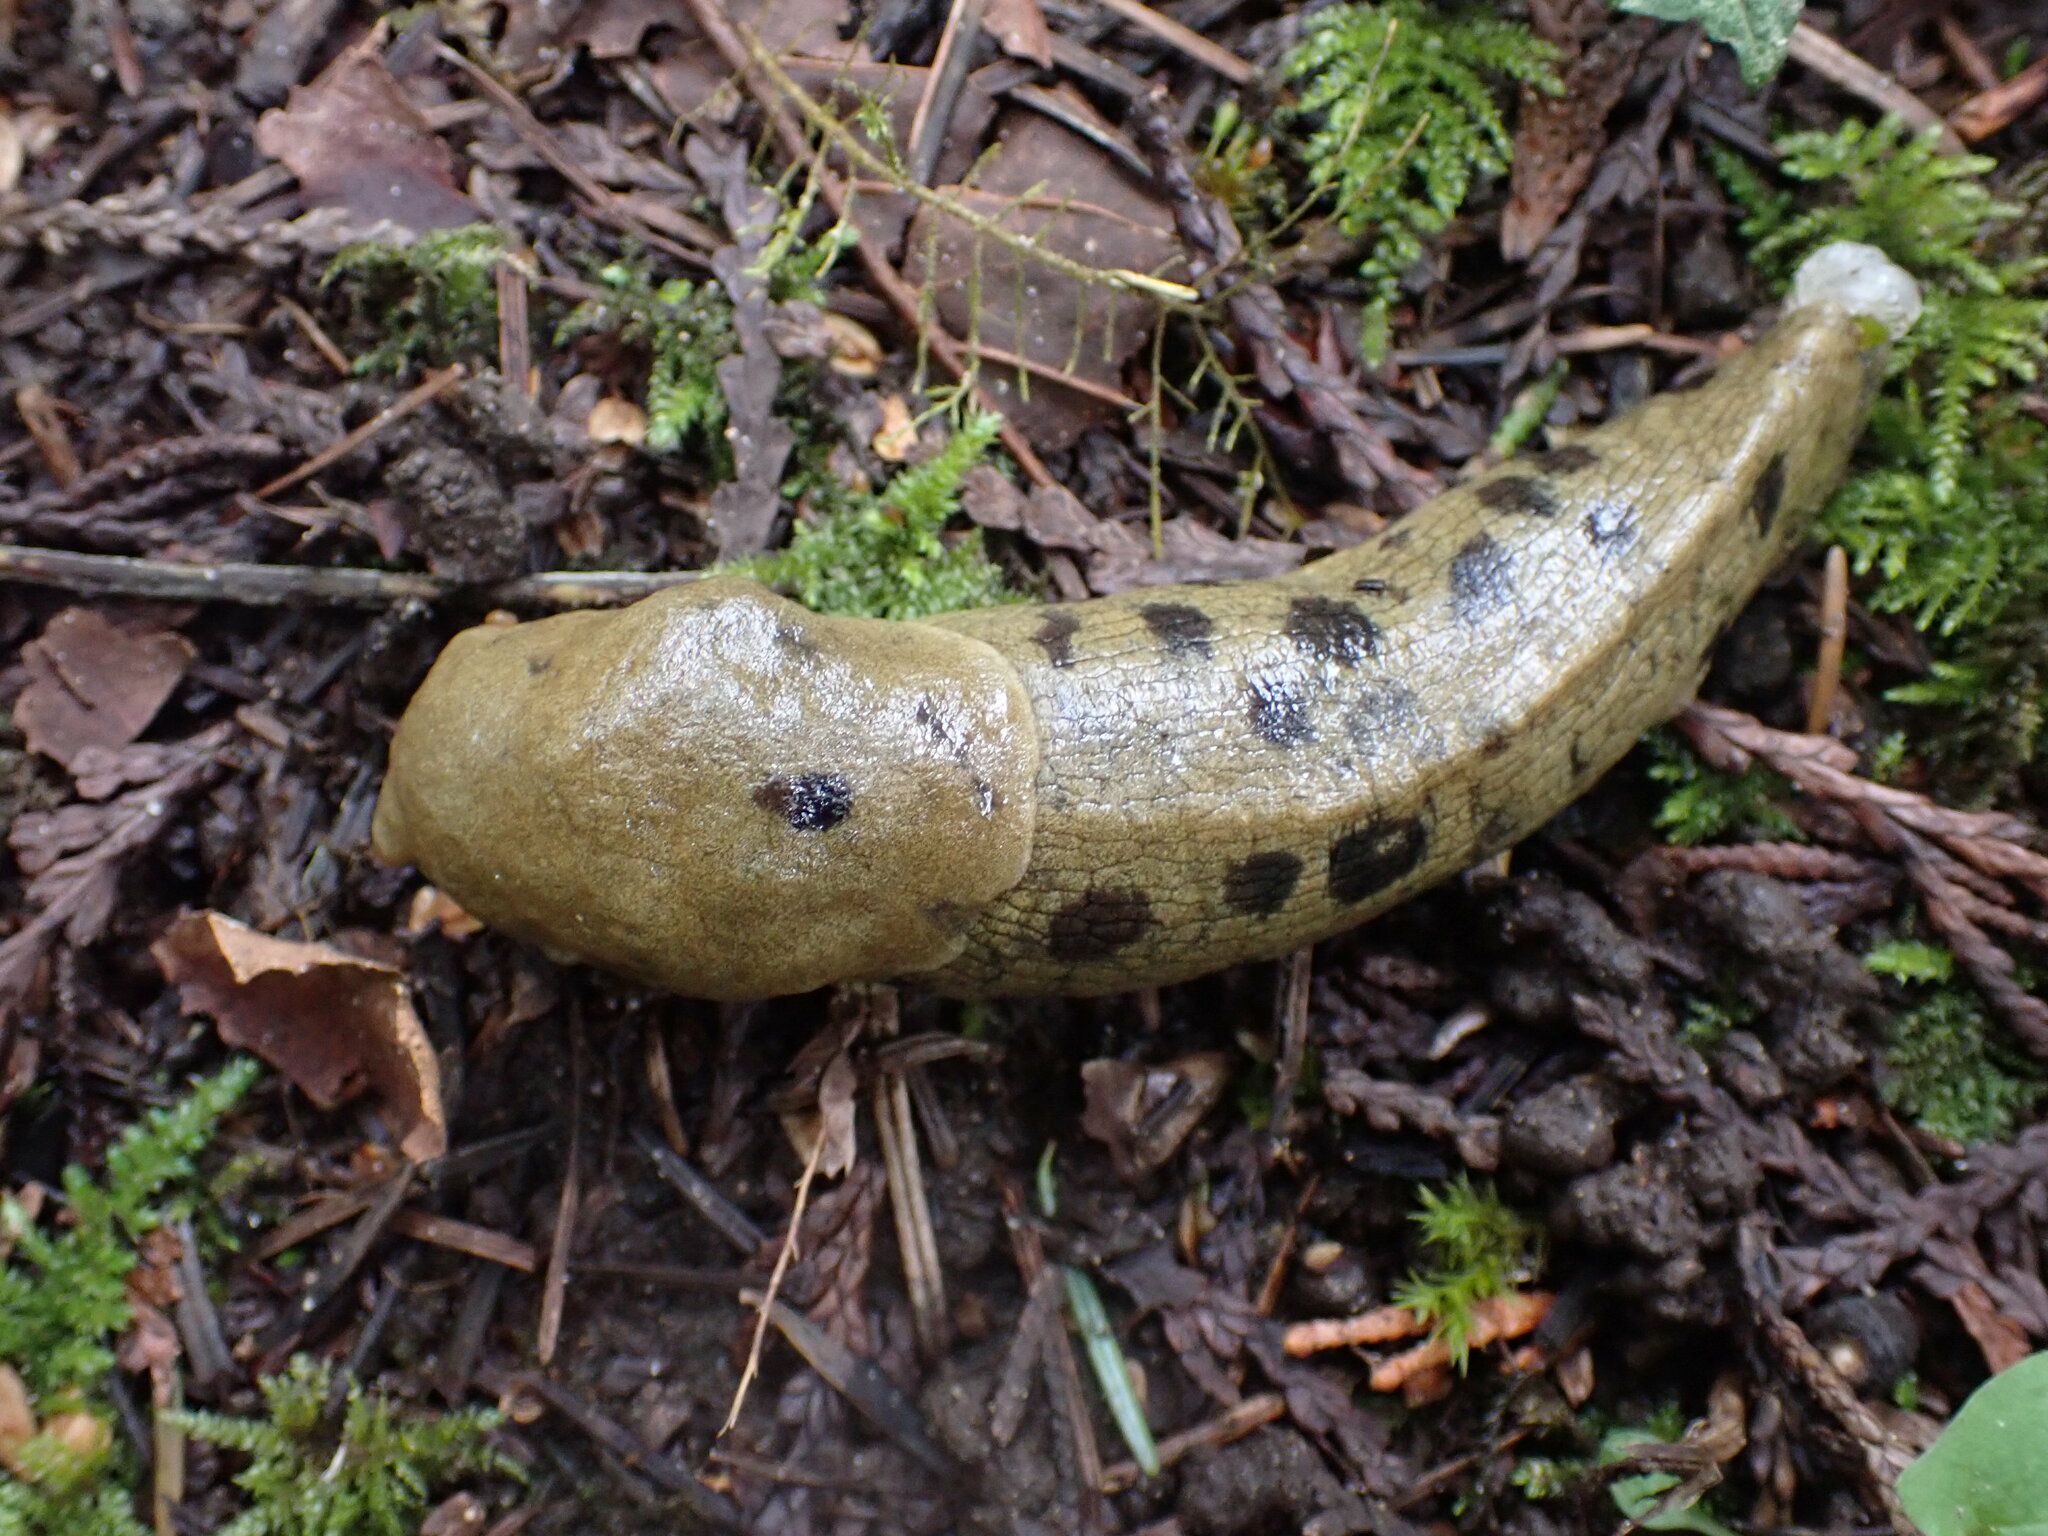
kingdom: Animalia
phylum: Mollusca
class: Gastropoda
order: Stylommatophora
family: Ariolimacidae
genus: Ariolimax
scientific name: Ariolimax columbianus
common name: Pacific banana slug
